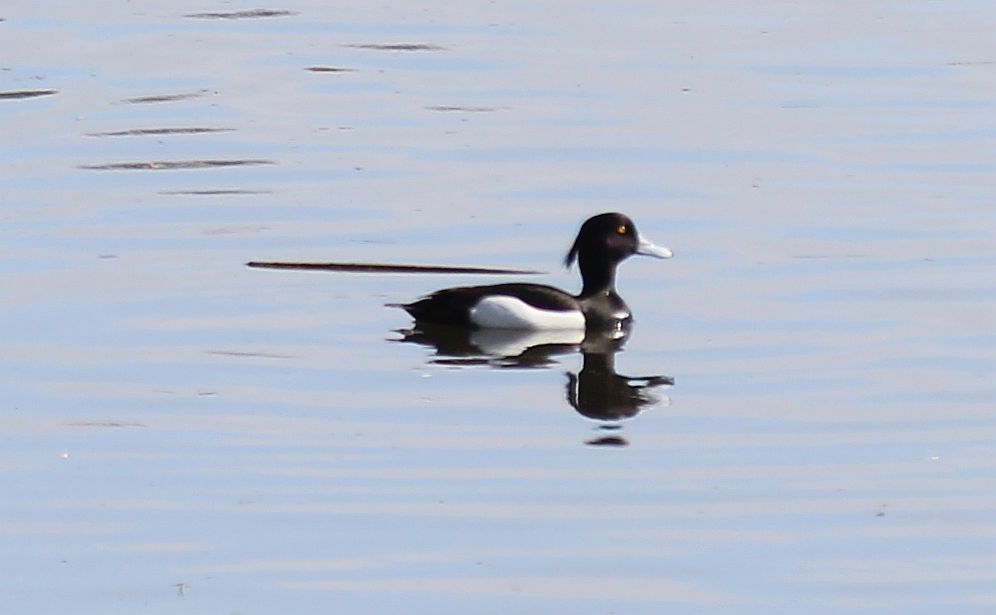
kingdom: Animalia
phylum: Chordata
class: Aves
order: Anseriformes
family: Anatidae
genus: Aythya
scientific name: Aythya fuligula
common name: Tufted duck
